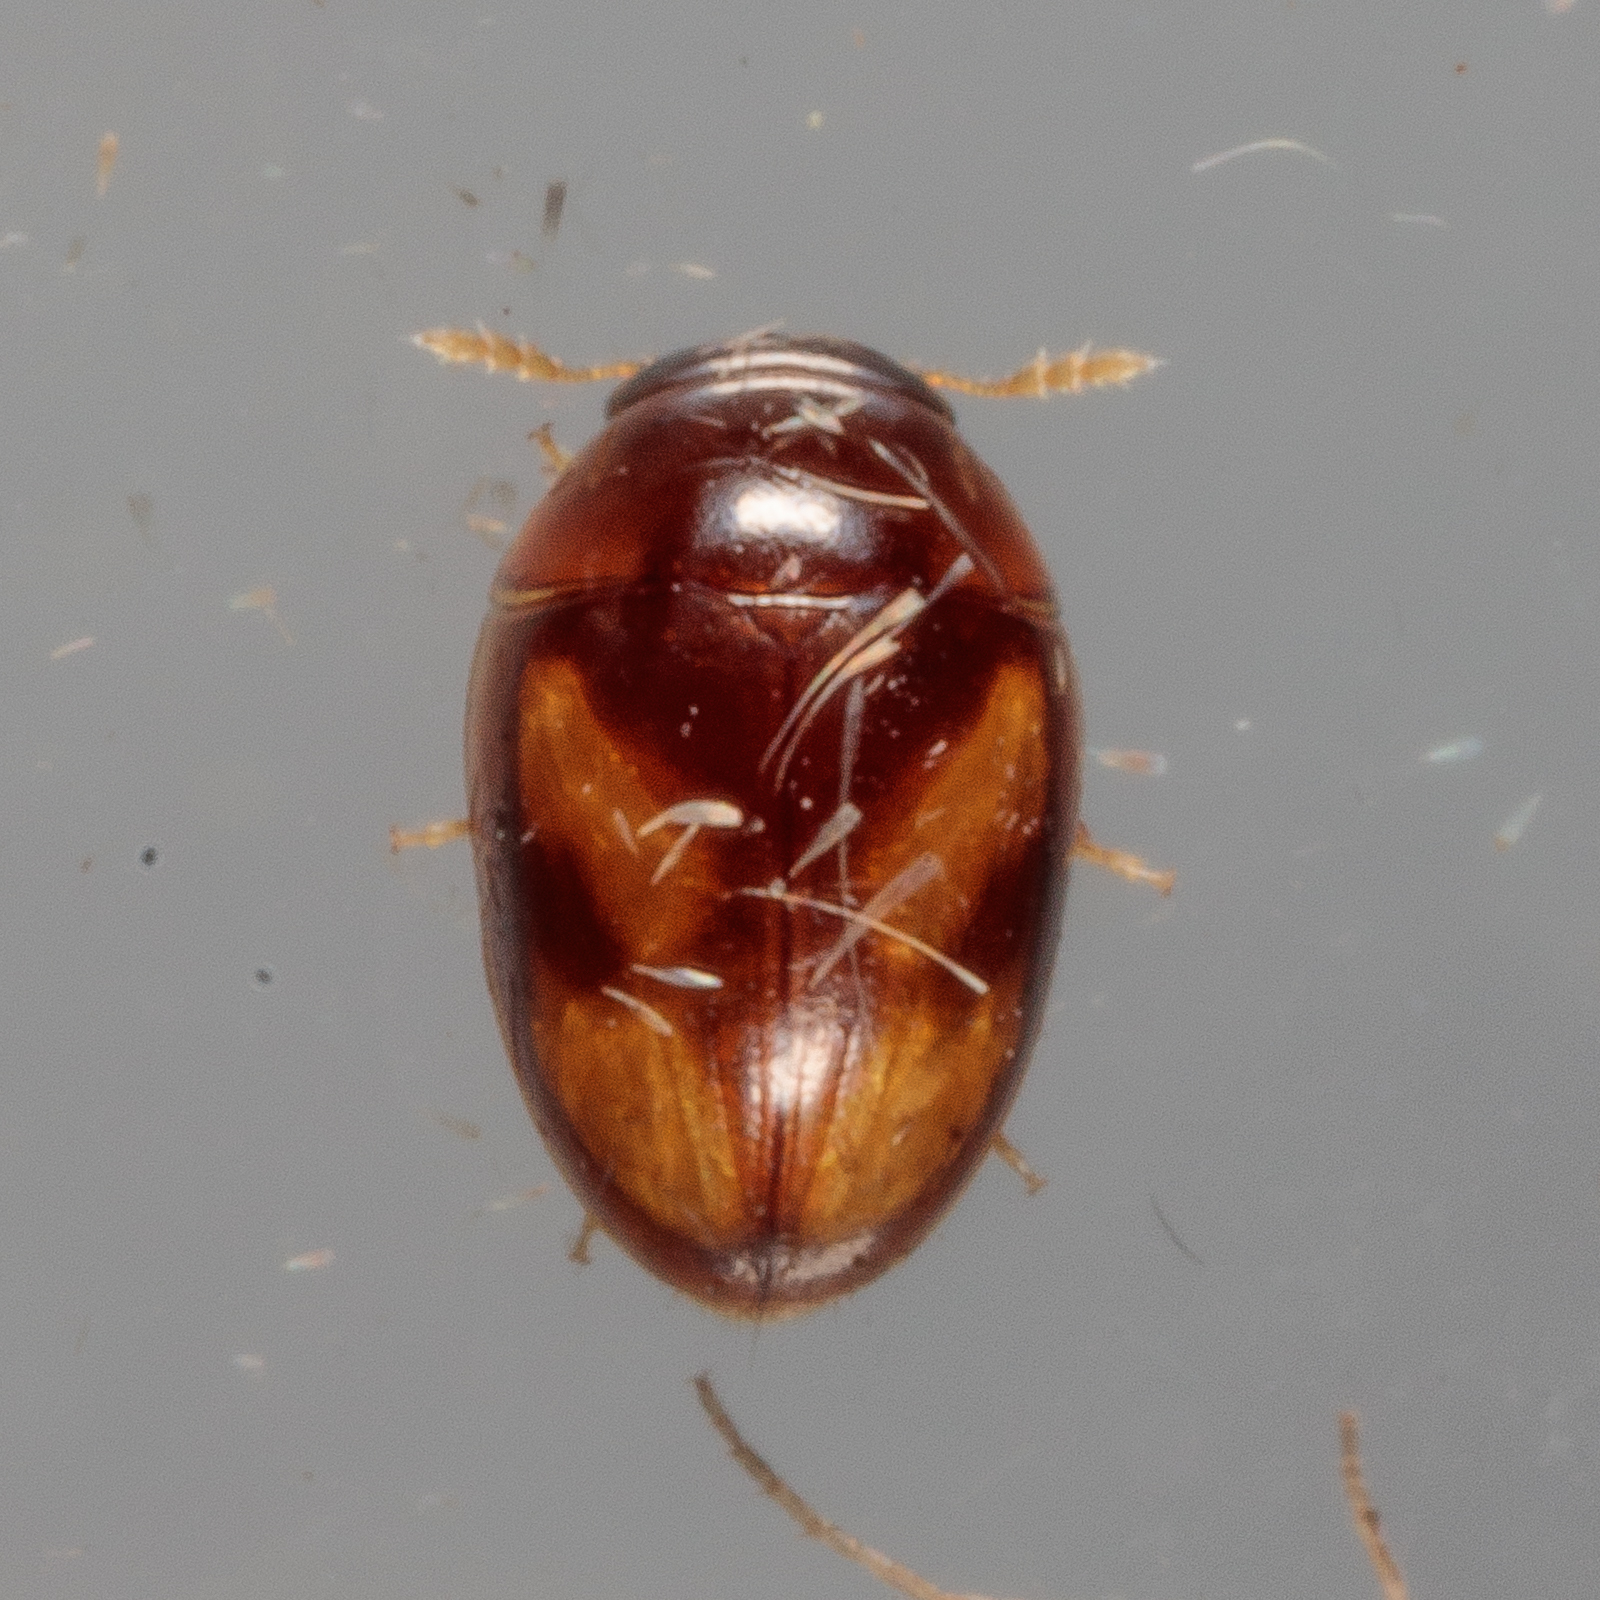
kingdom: Animalia
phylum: Arthropoda
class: Insecta
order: Coleoptera
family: Phalacridae
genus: Neolitochrus
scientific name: Neolitochrus
